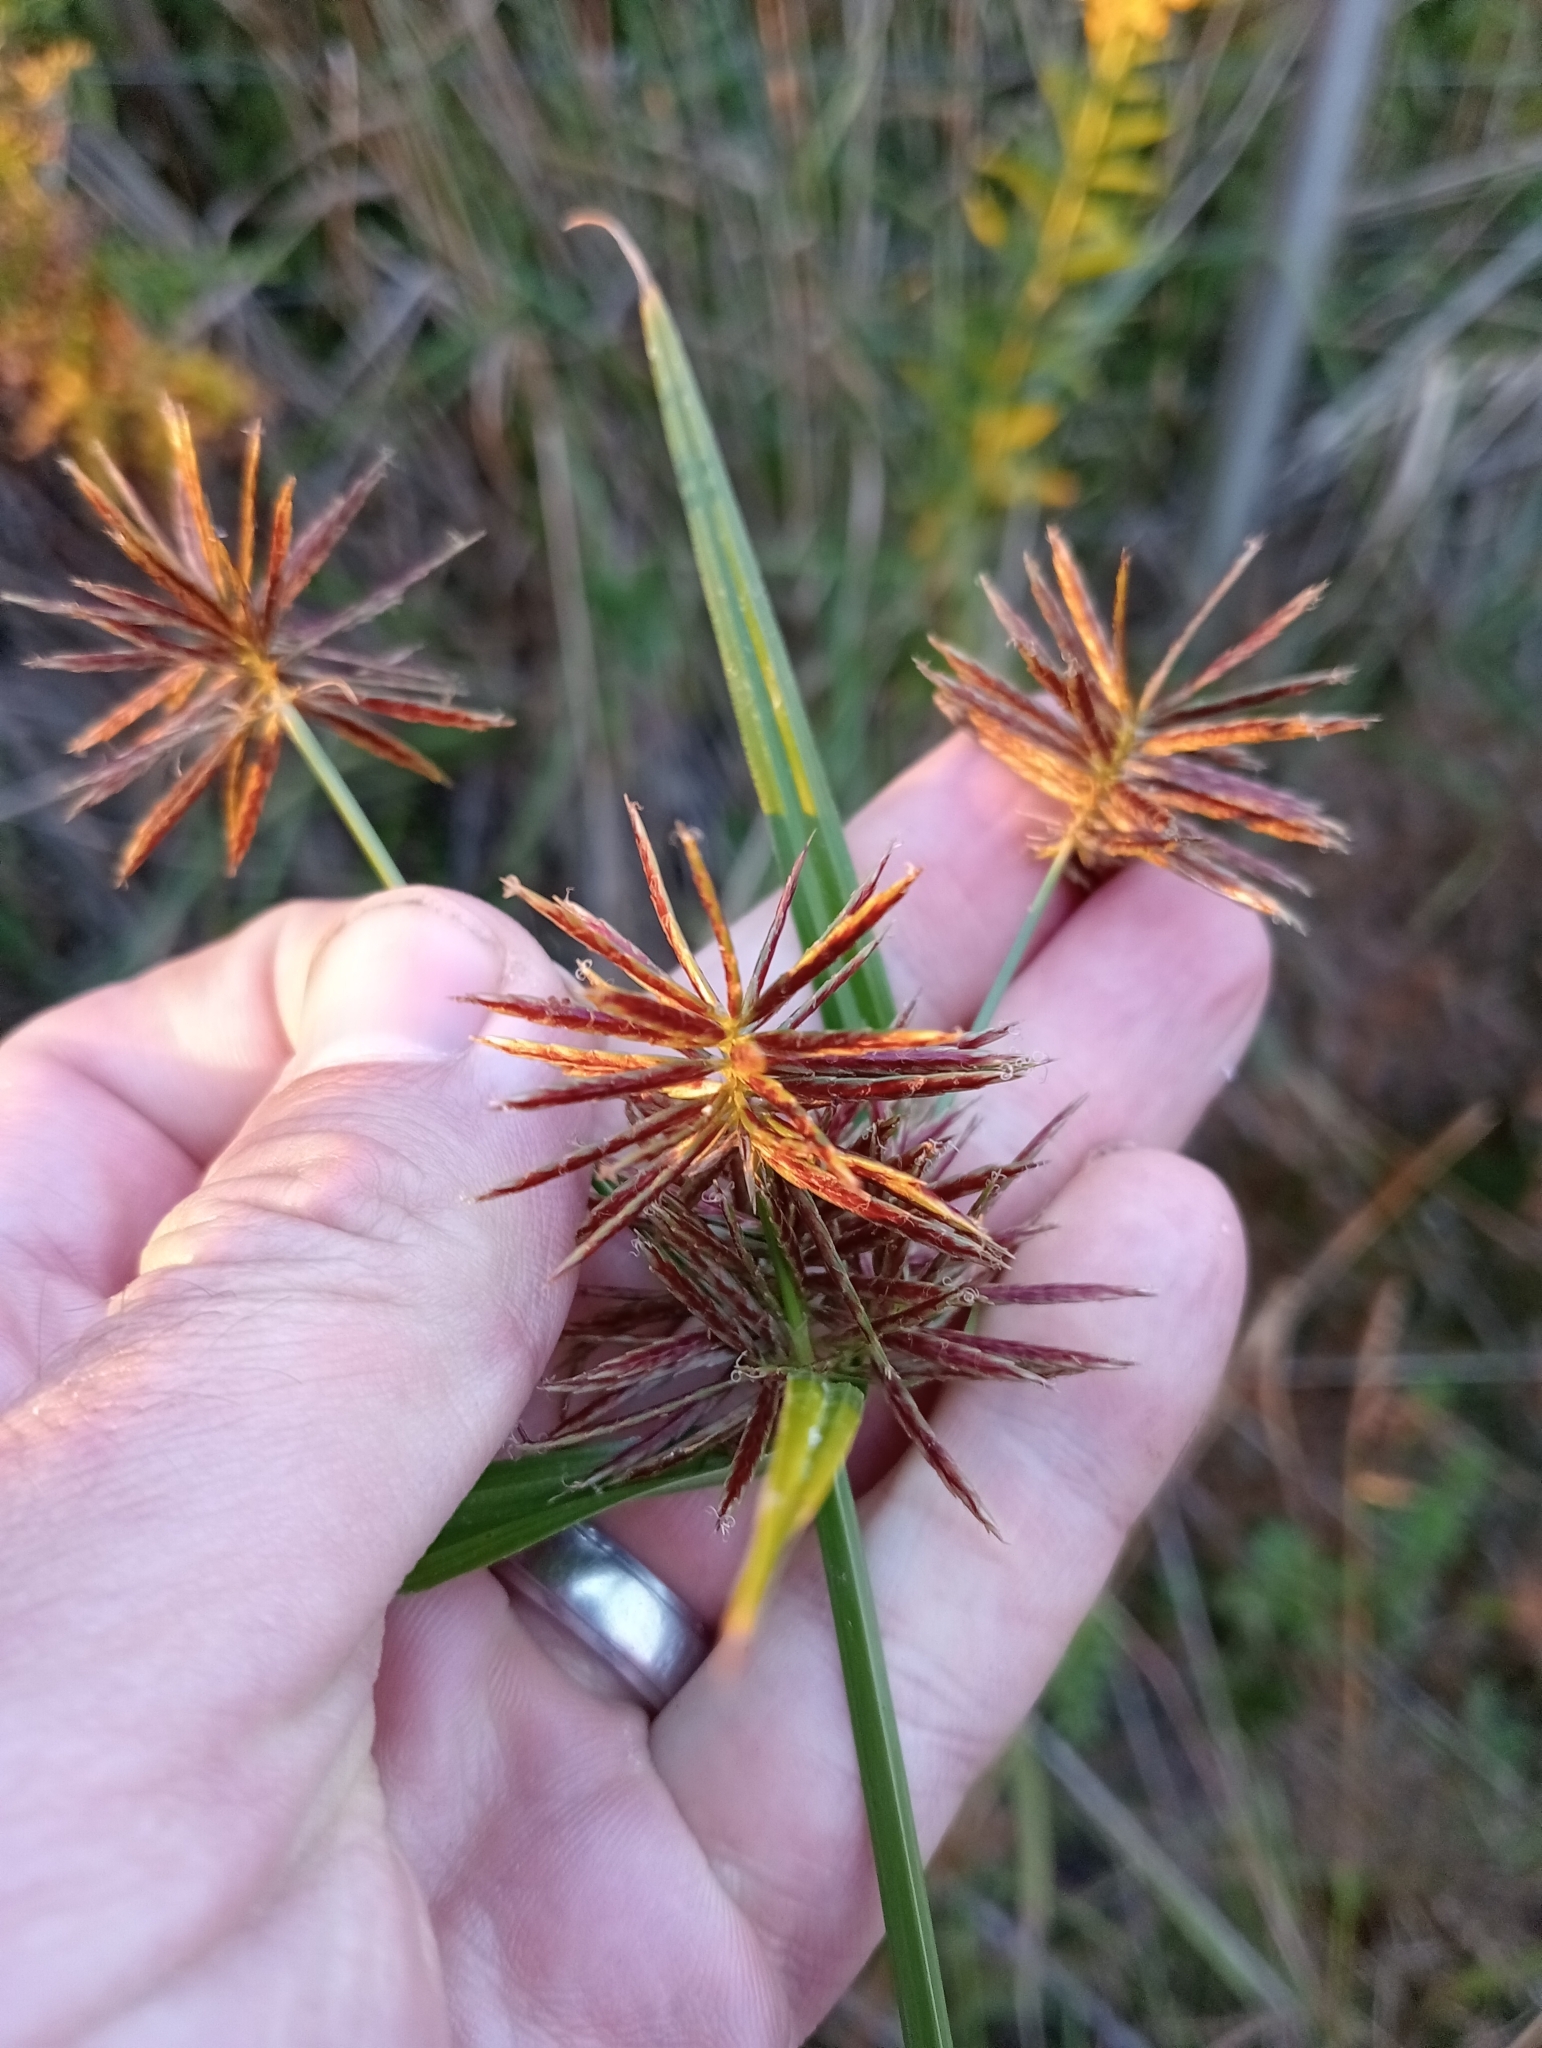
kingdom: Plantae
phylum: Tracheophyta
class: Liliopsida
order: Poales
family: Cyperaceae
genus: Cyperus
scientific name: Cyperus congestus
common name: Dense flat sedge
